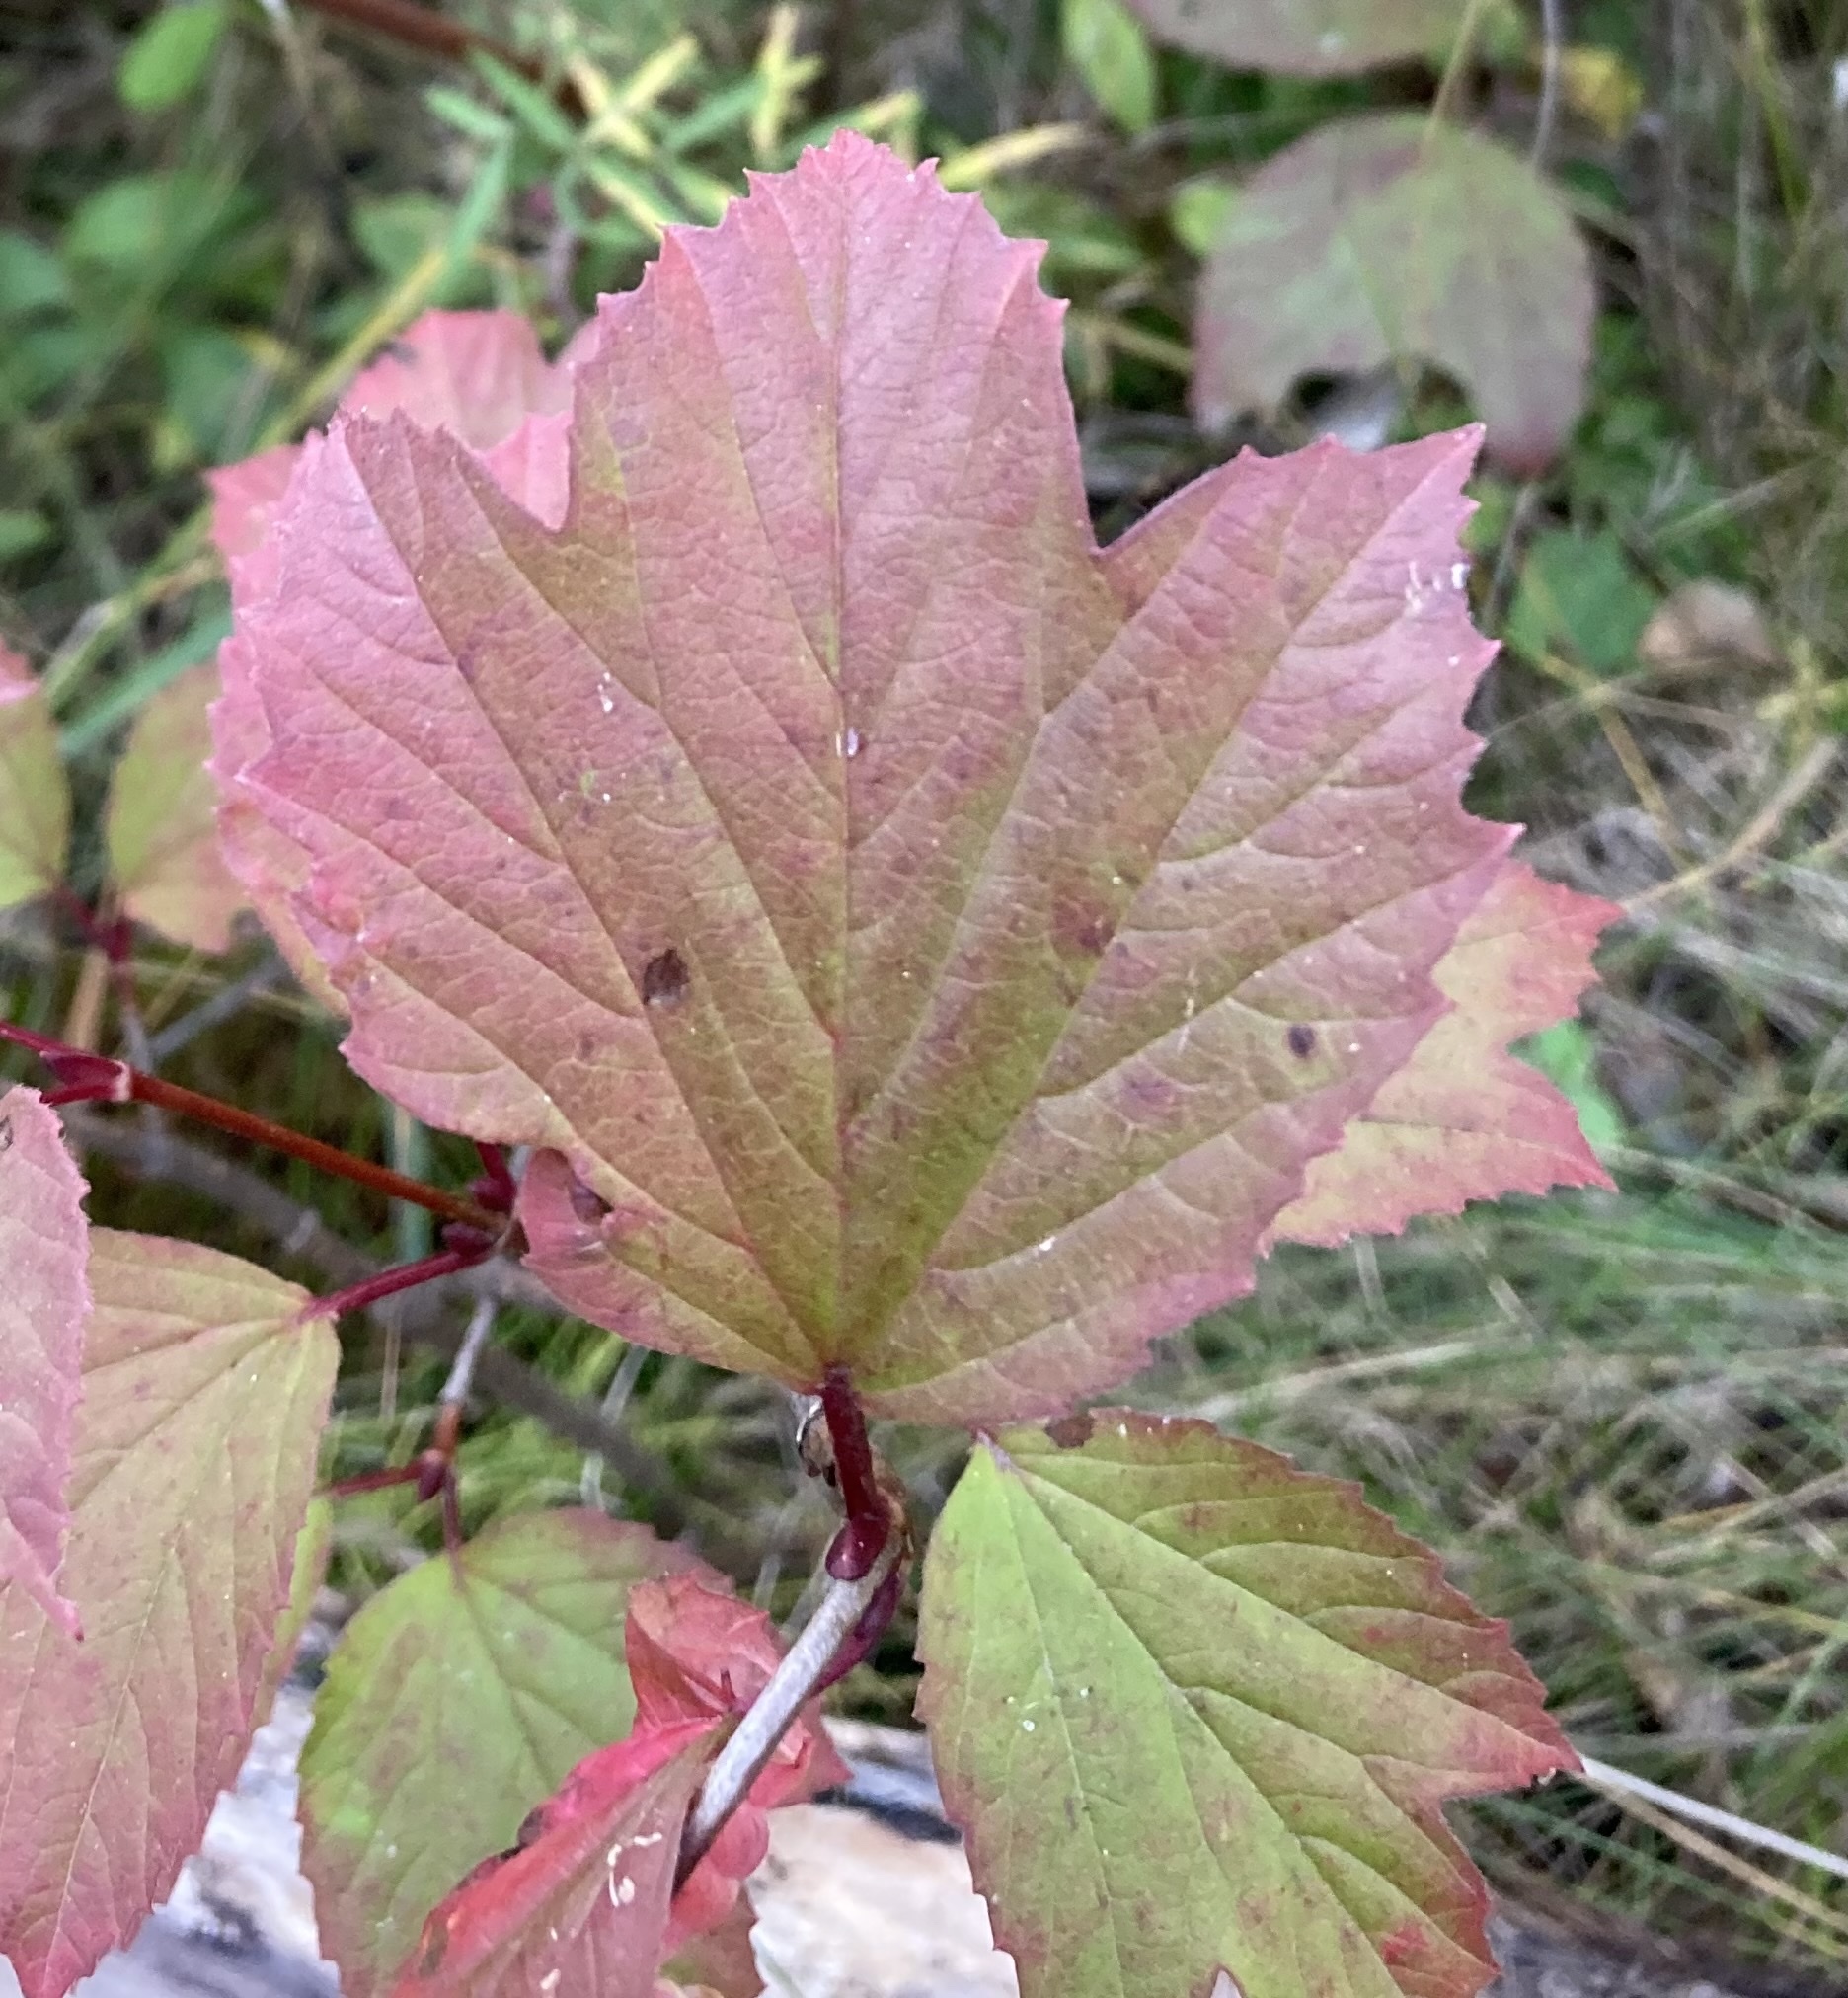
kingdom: Plantae
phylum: Tracheophyta
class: Magnoliopsida
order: Dipsacales
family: Viburnaceae
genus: Viburnum
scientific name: Viburnum edule
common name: Mooseberry
